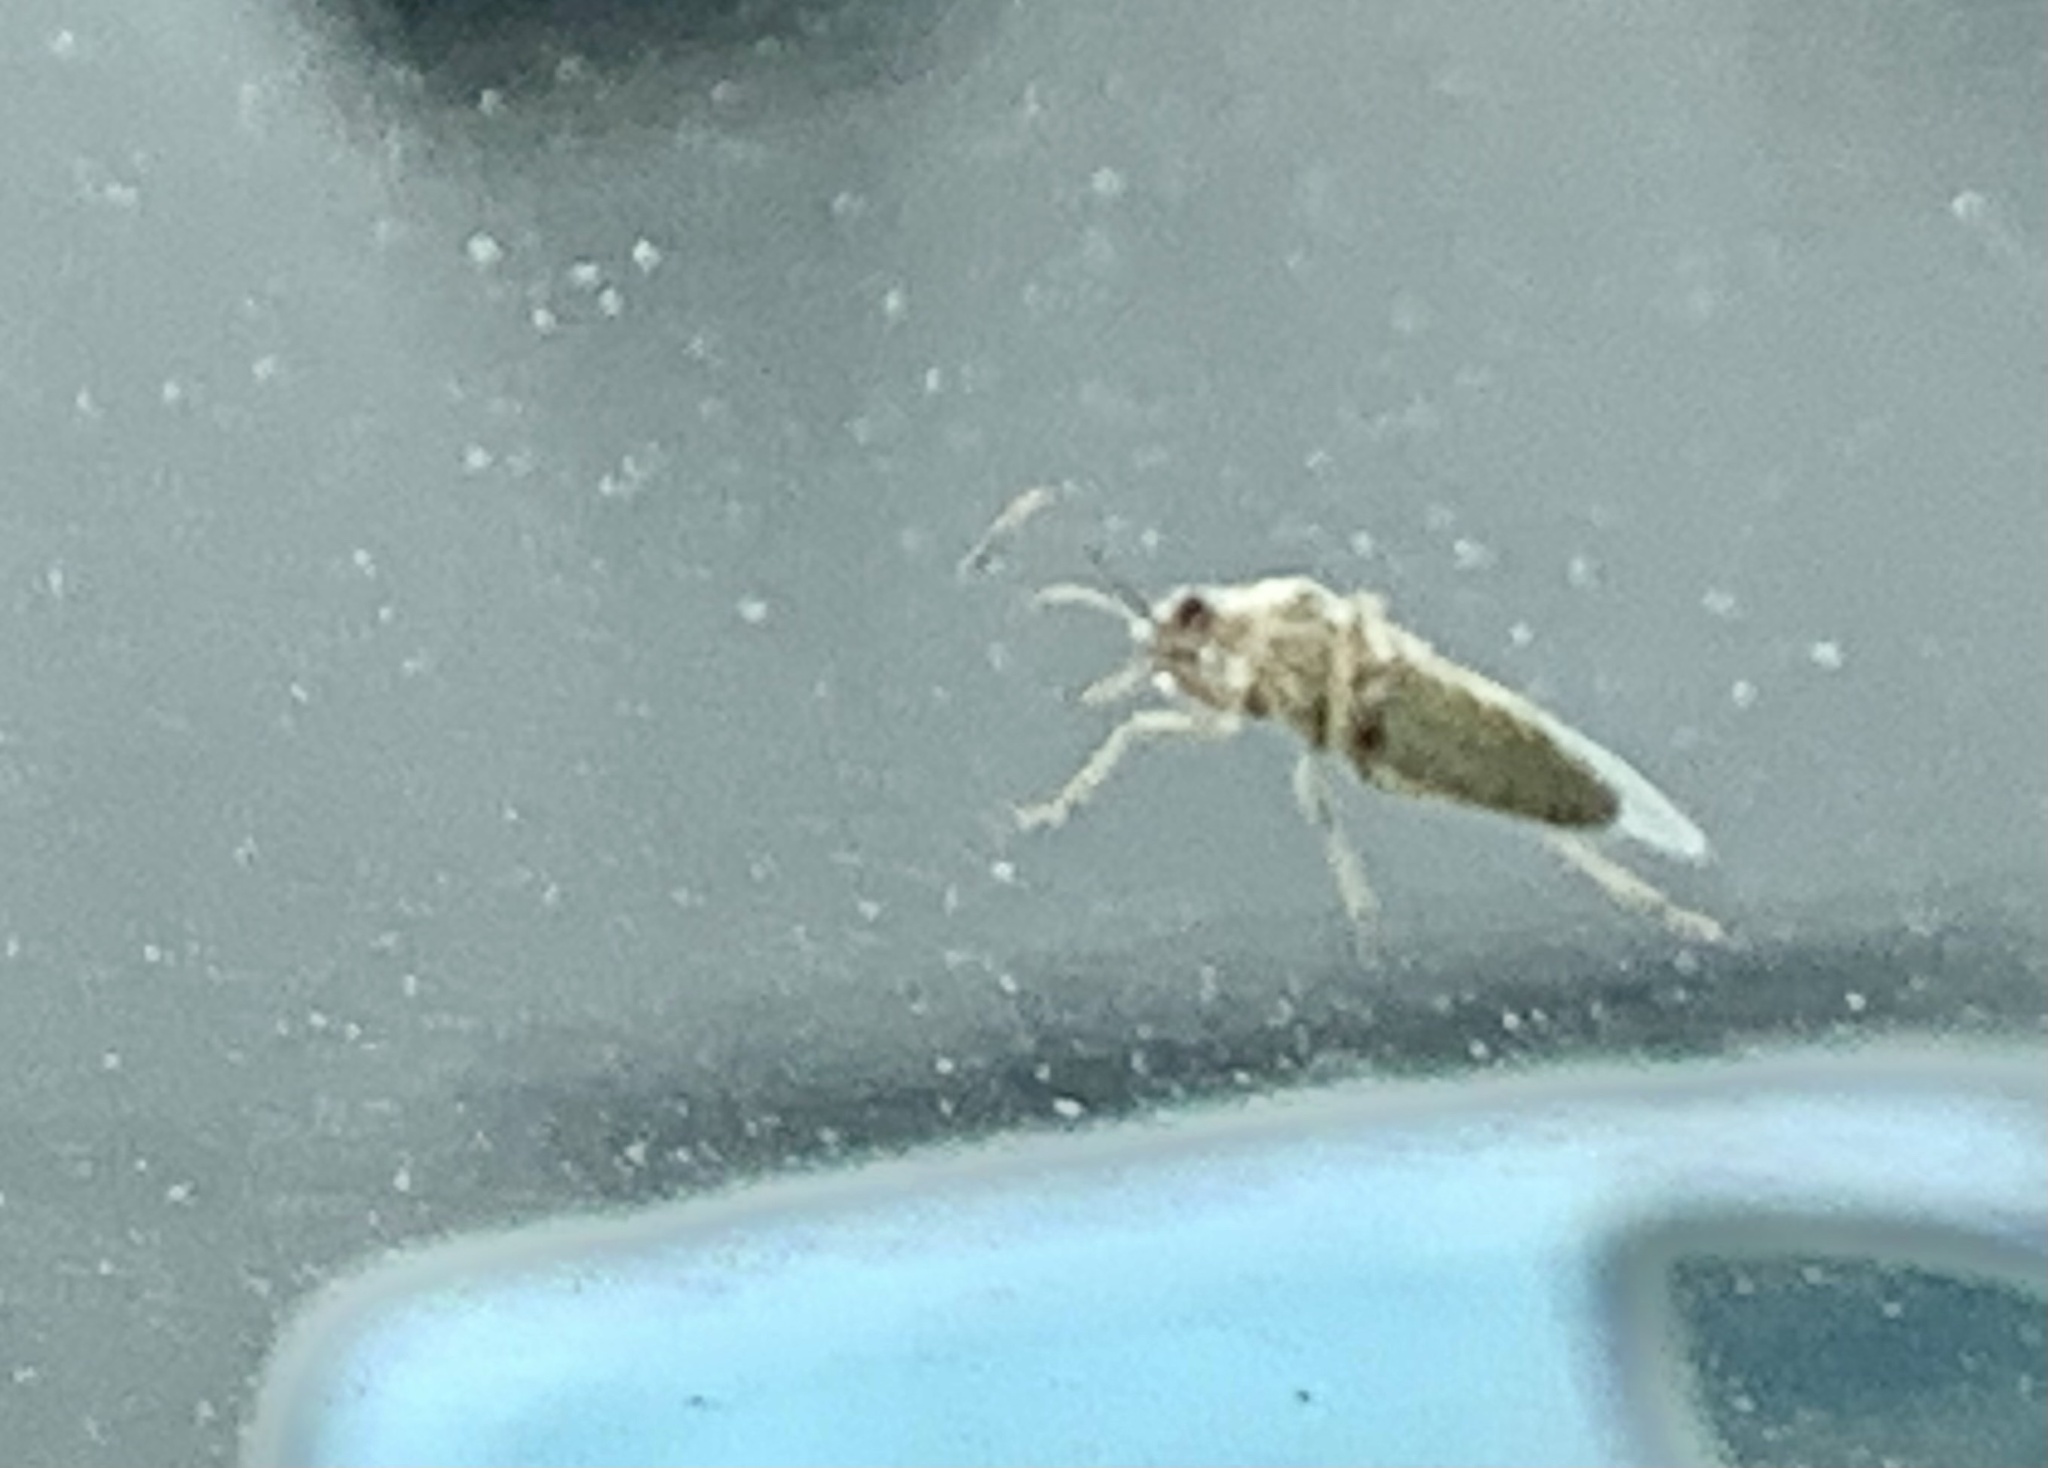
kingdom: Animalia
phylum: Arthropoda
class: Insecta
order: Hemiptera
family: Rhopalidae
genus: Liorhyssus
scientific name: Liorhyssus hyalinus
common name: Scentless plant bug
